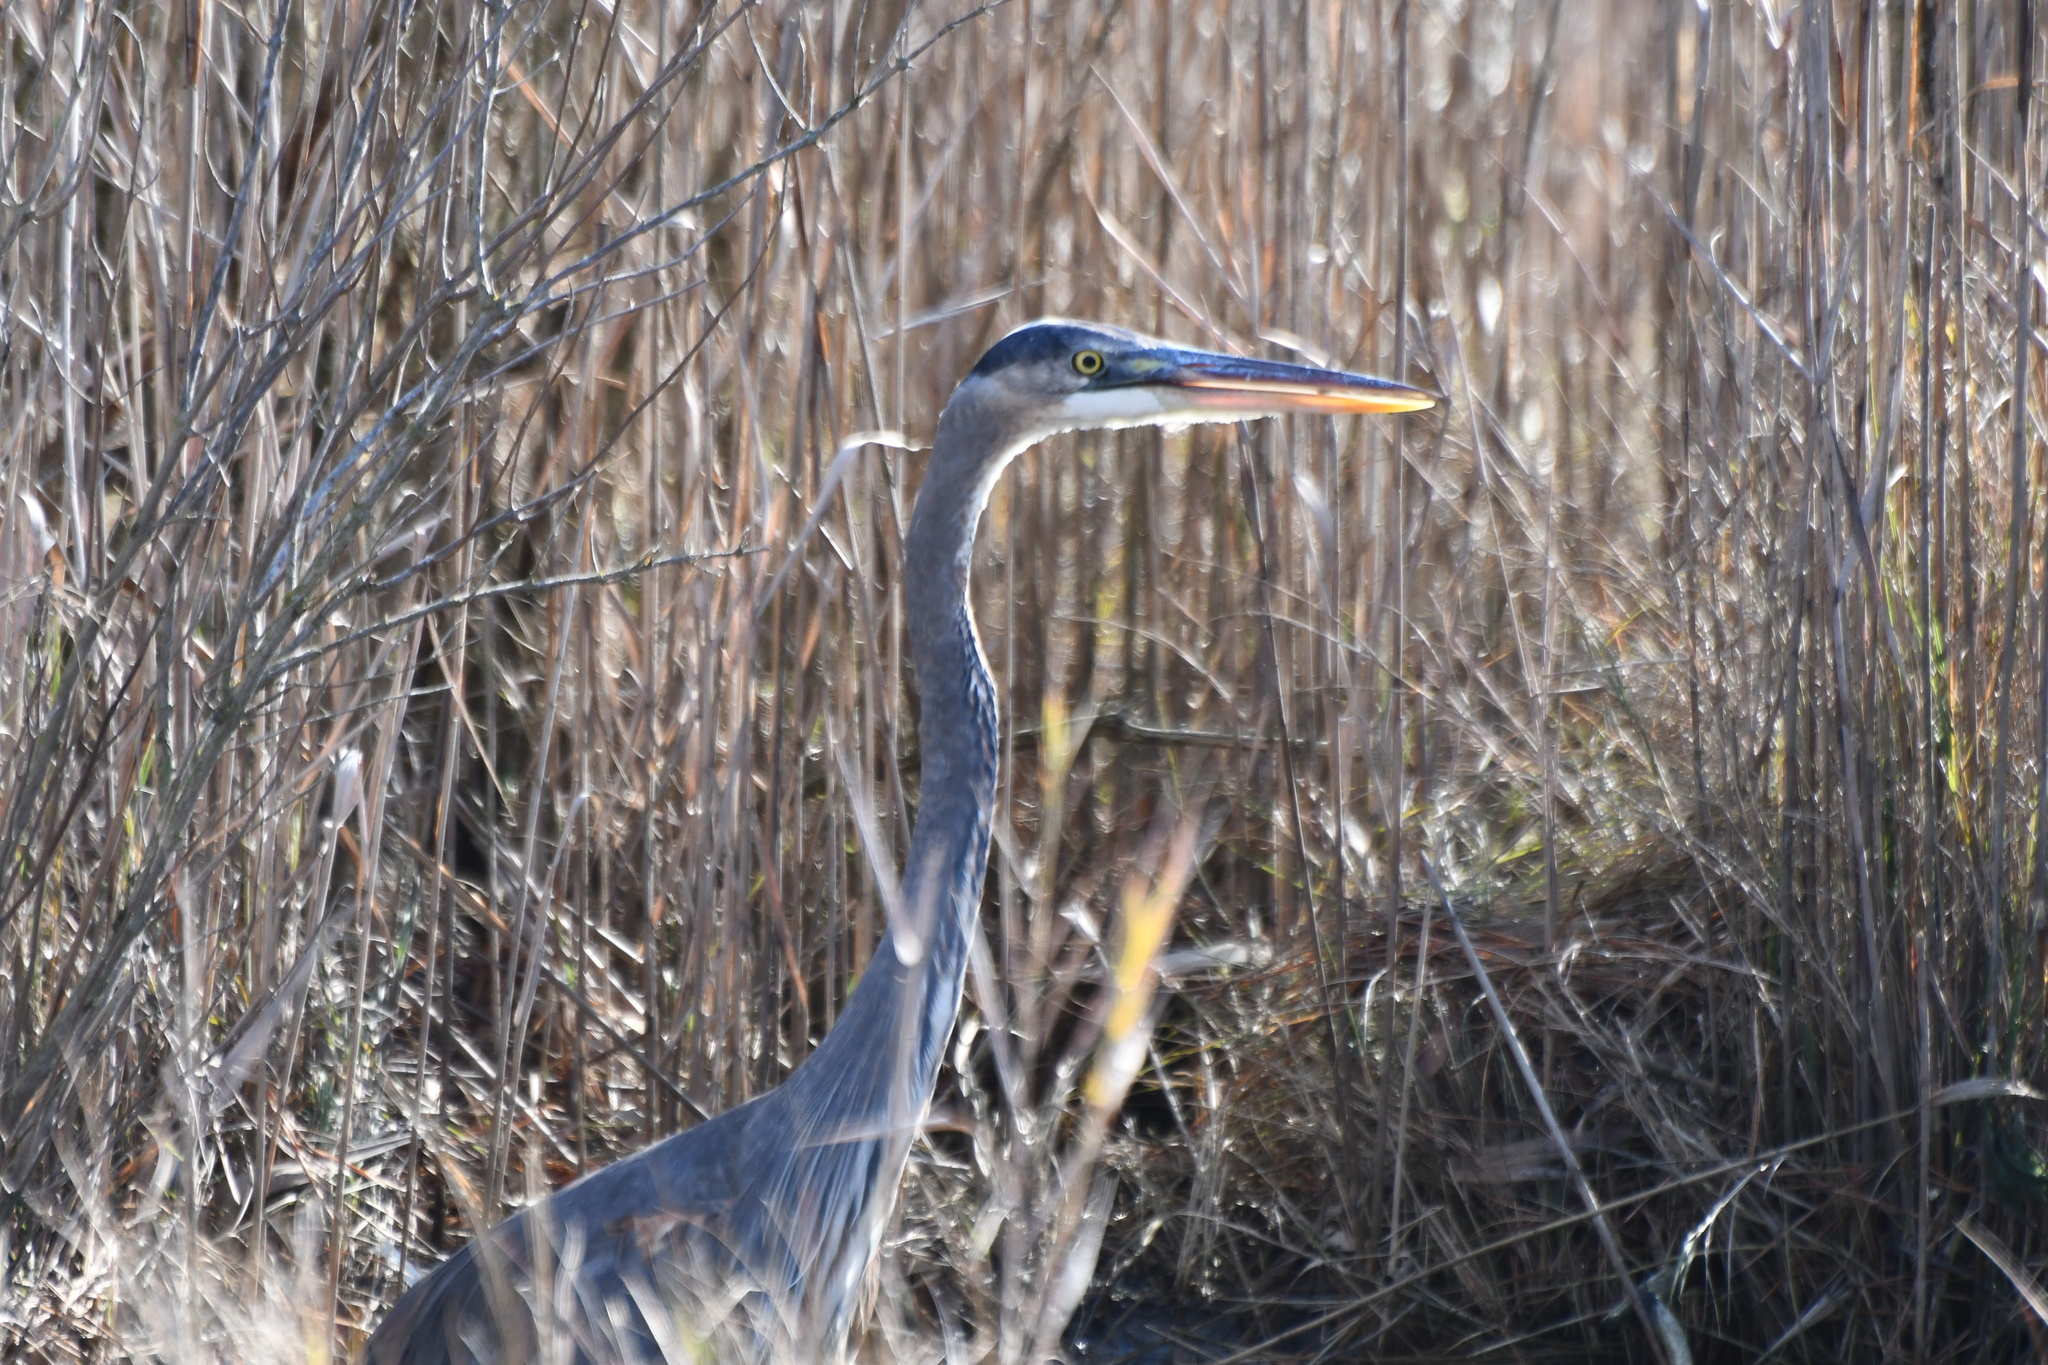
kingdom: Animalia
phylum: Chordata
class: Aves
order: Pelecaniformes
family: Ardeidae
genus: Ardea
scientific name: Ardea herodias
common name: Great blue heron
